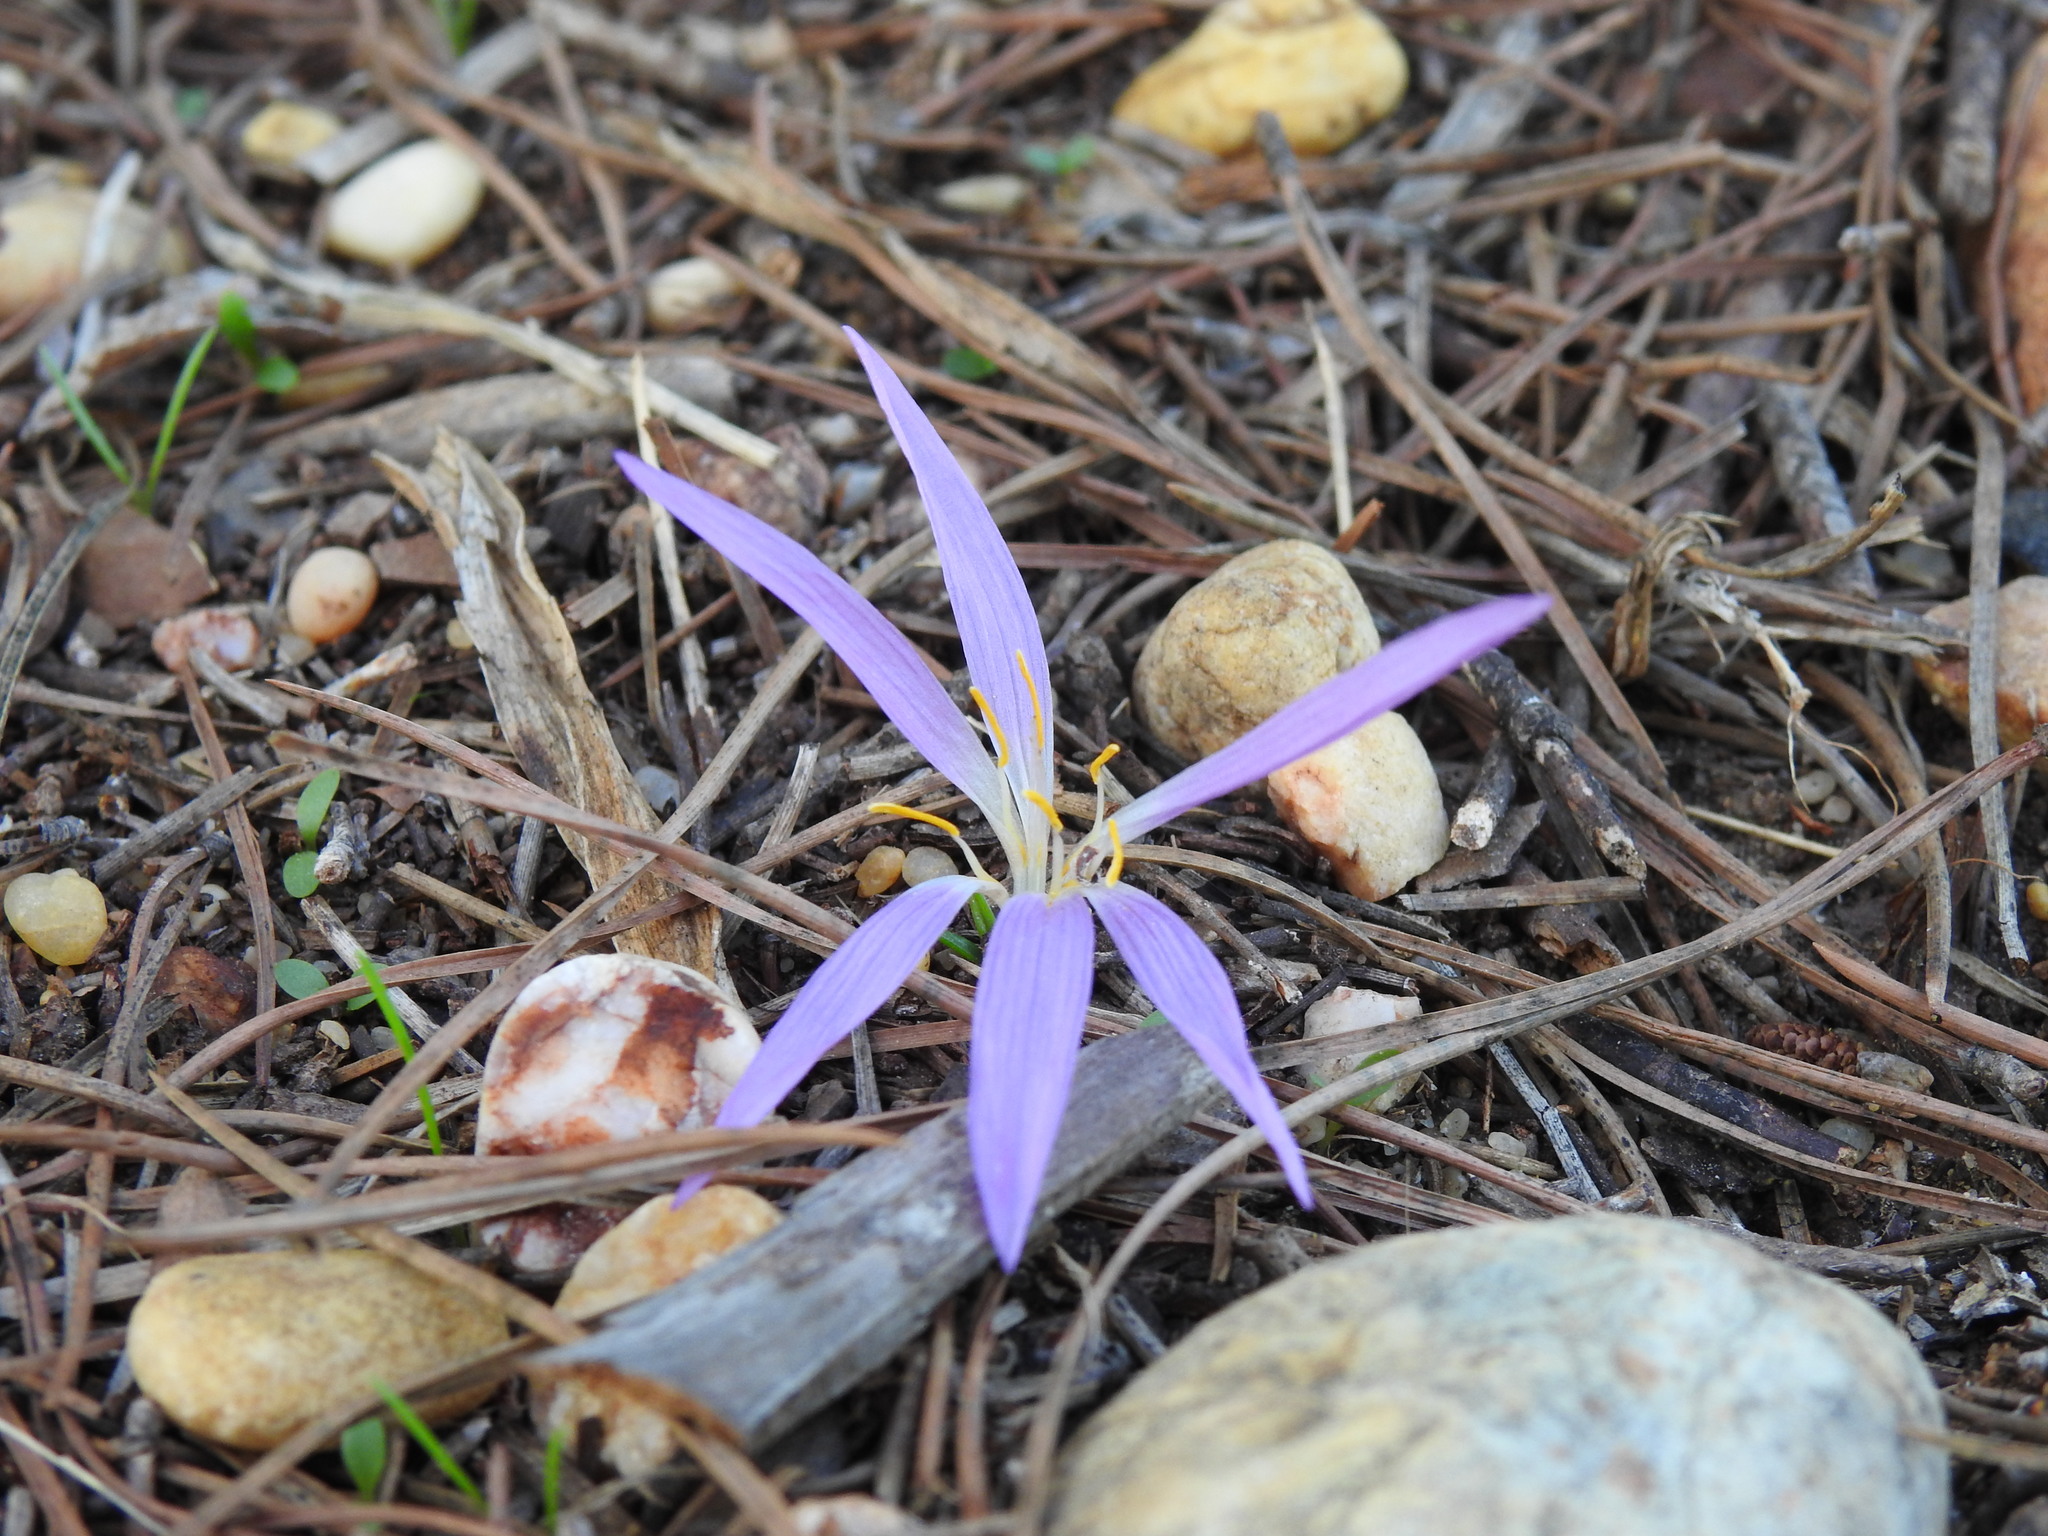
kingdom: Plantae
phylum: Tracheophyta
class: Liliopsida
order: Liliales
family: Colchicaceae
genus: Colchicum
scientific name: Colchicum filifolium
